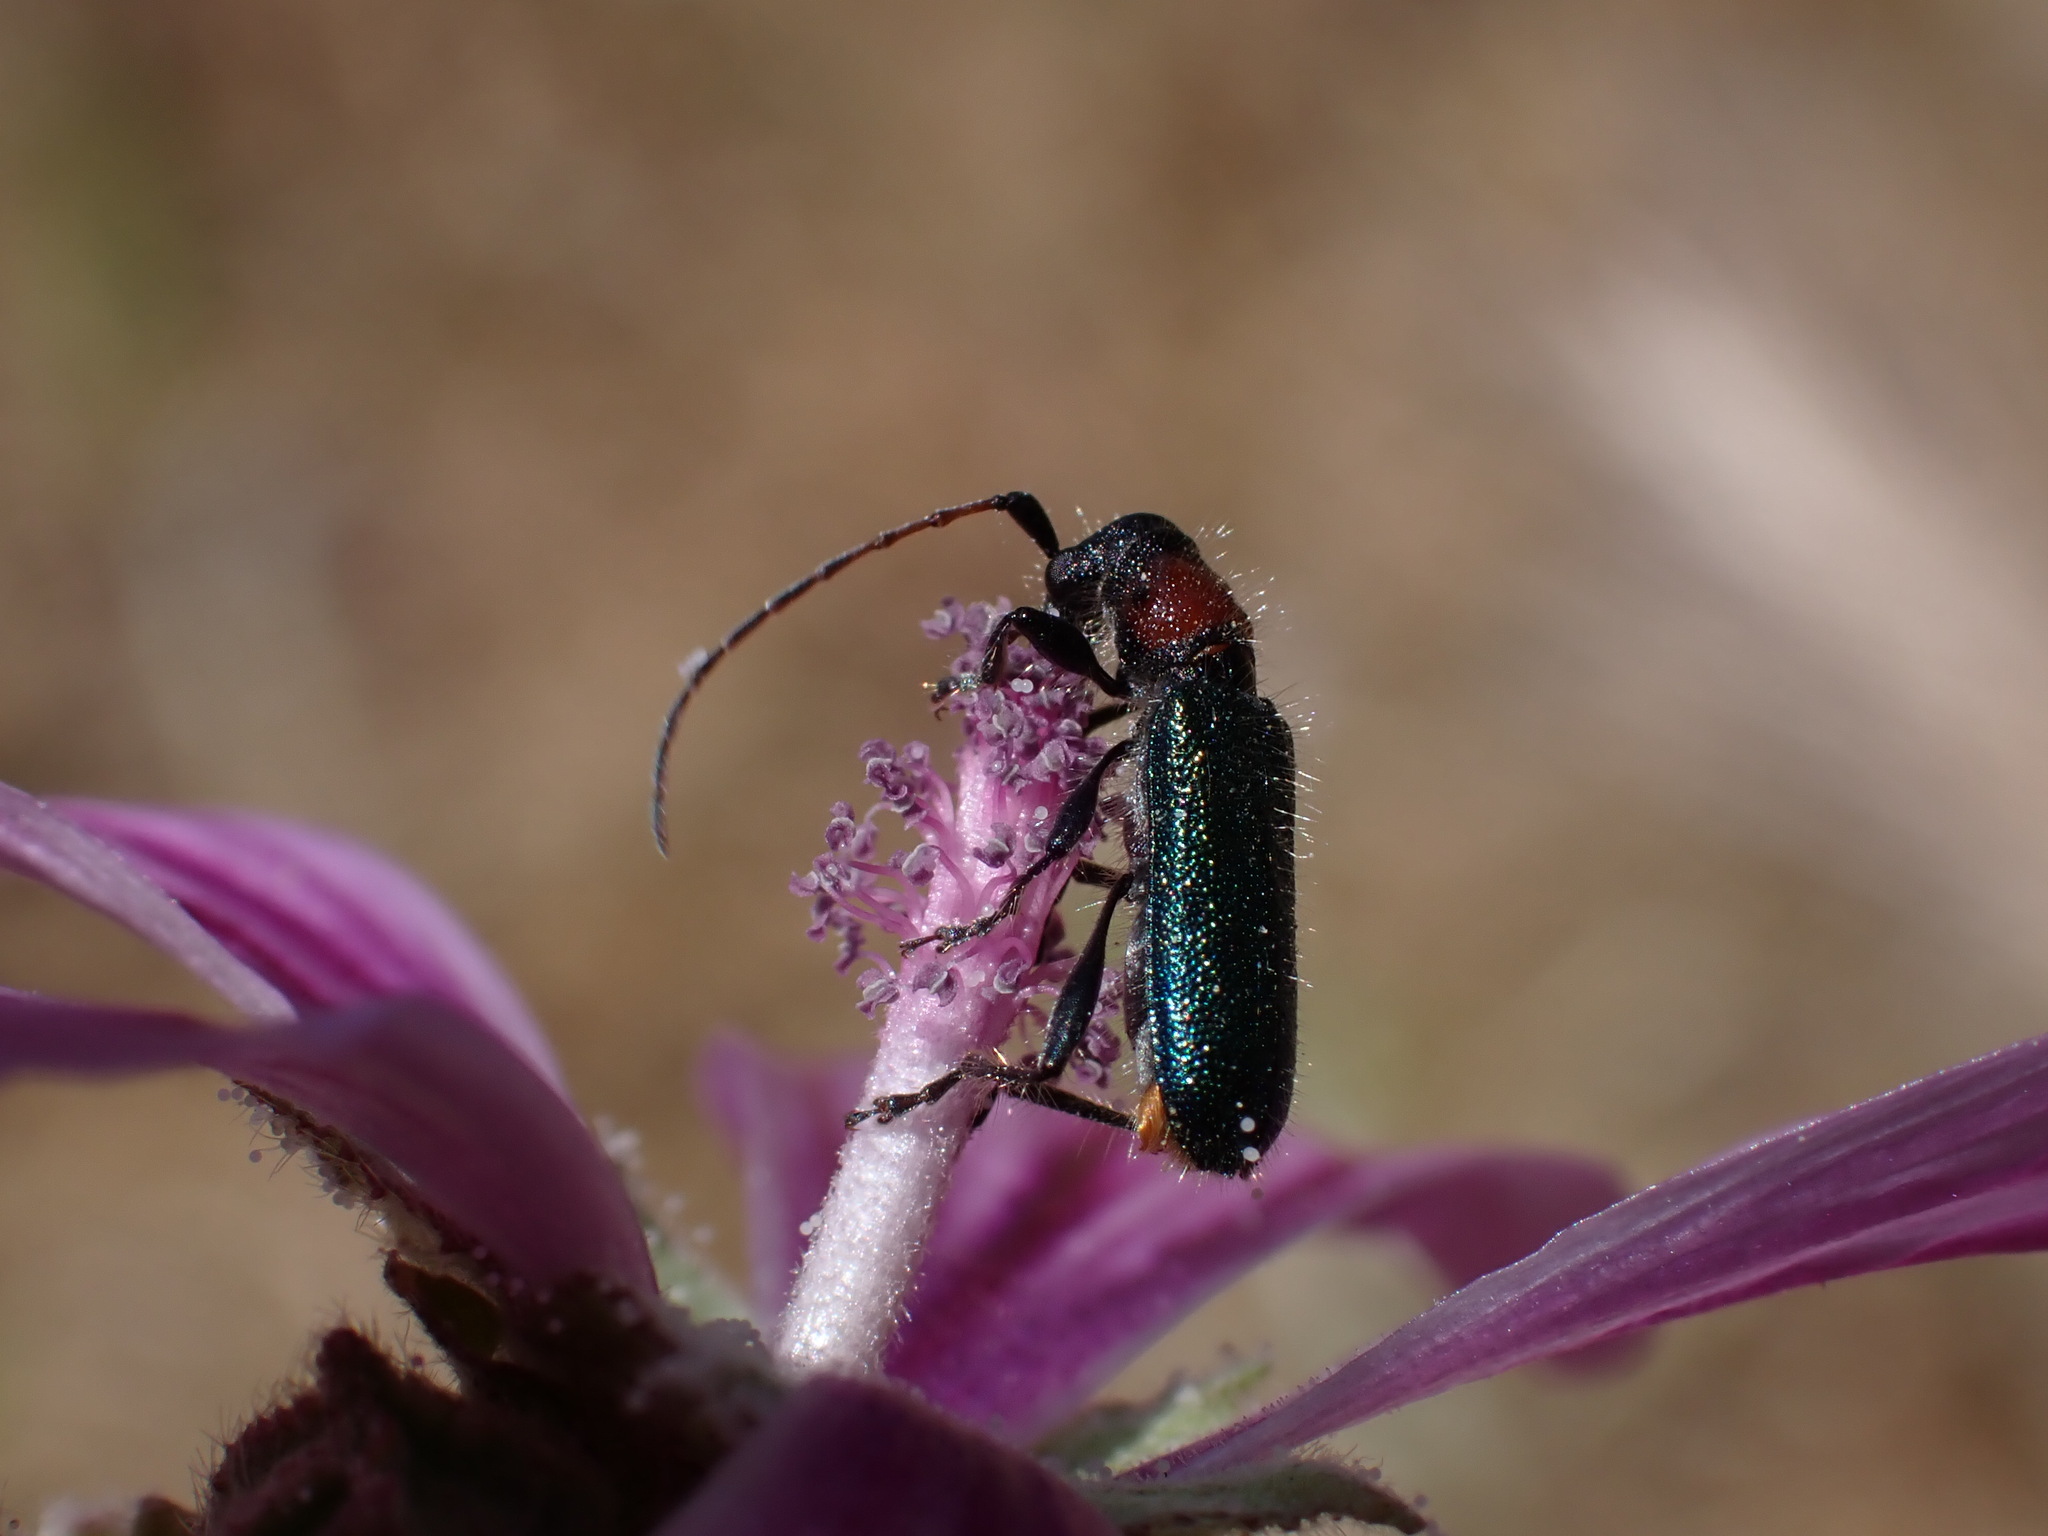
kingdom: Animalia
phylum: Arthropoda
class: Insecta
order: Coleoptera
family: Cerambycidae
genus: Certallum
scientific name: Certallum ebulinum
